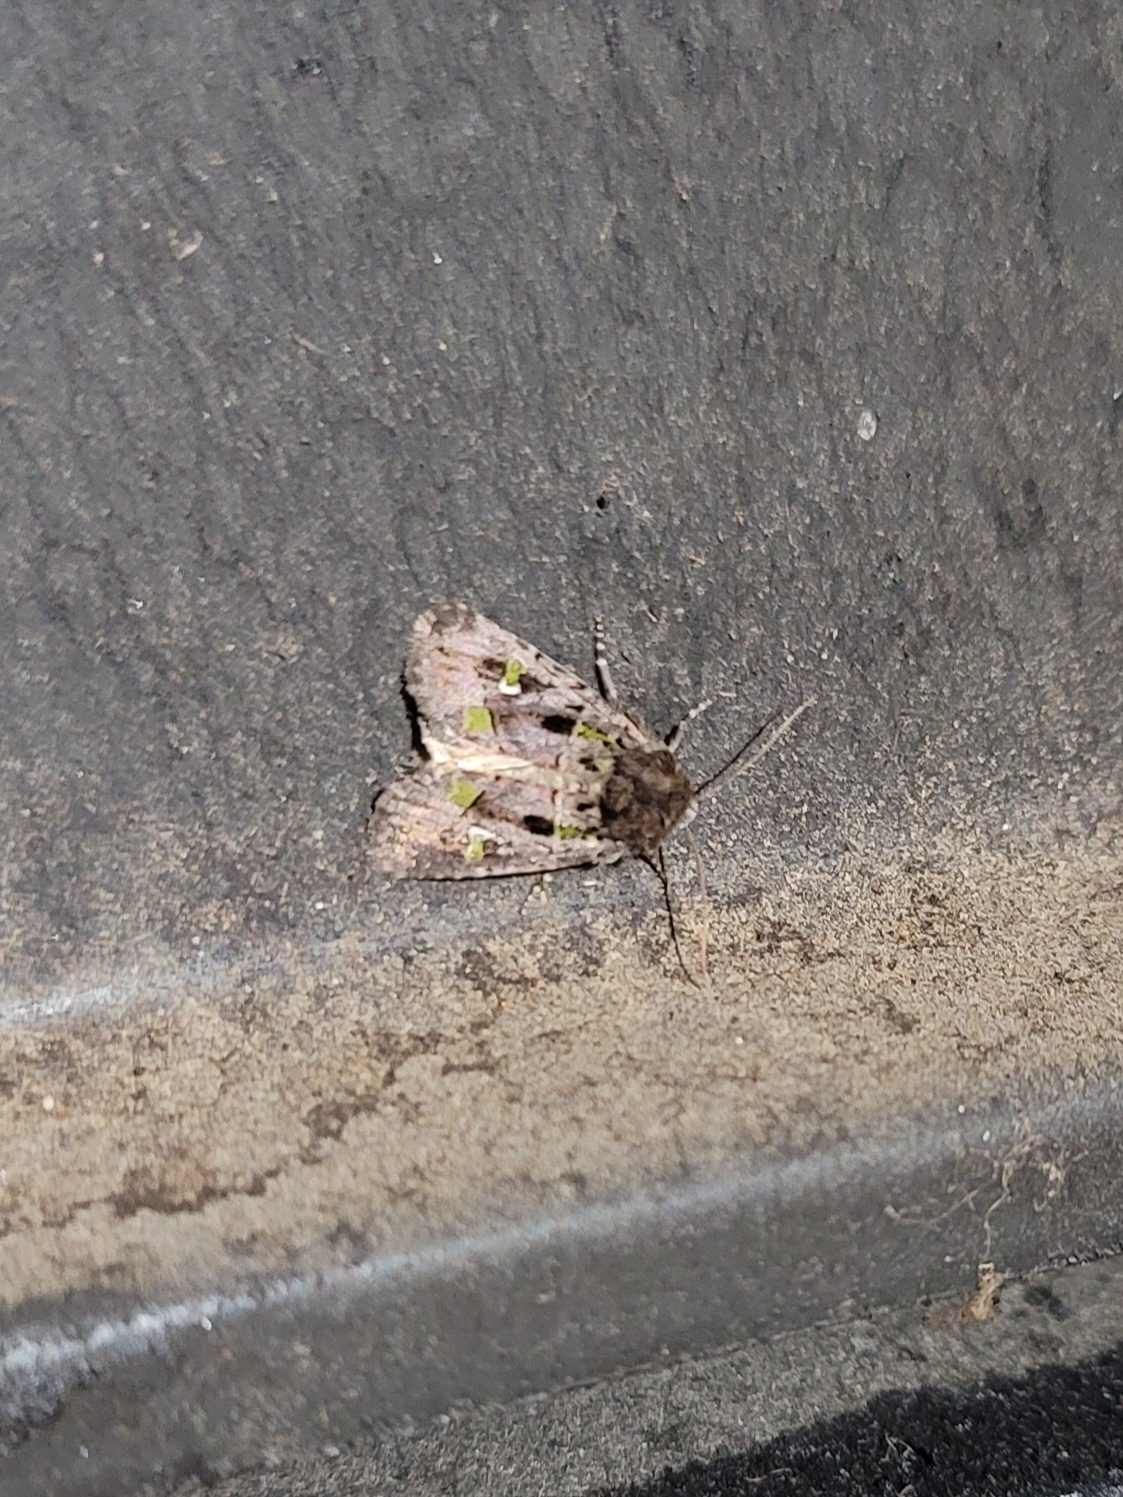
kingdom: Animalia
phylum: Arthropoda
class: Insecta
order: Lepidoptera
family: Noctuidae
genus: Lacinipolia
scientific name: Lacinipolia renigera
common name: Kidney-spotted minor
